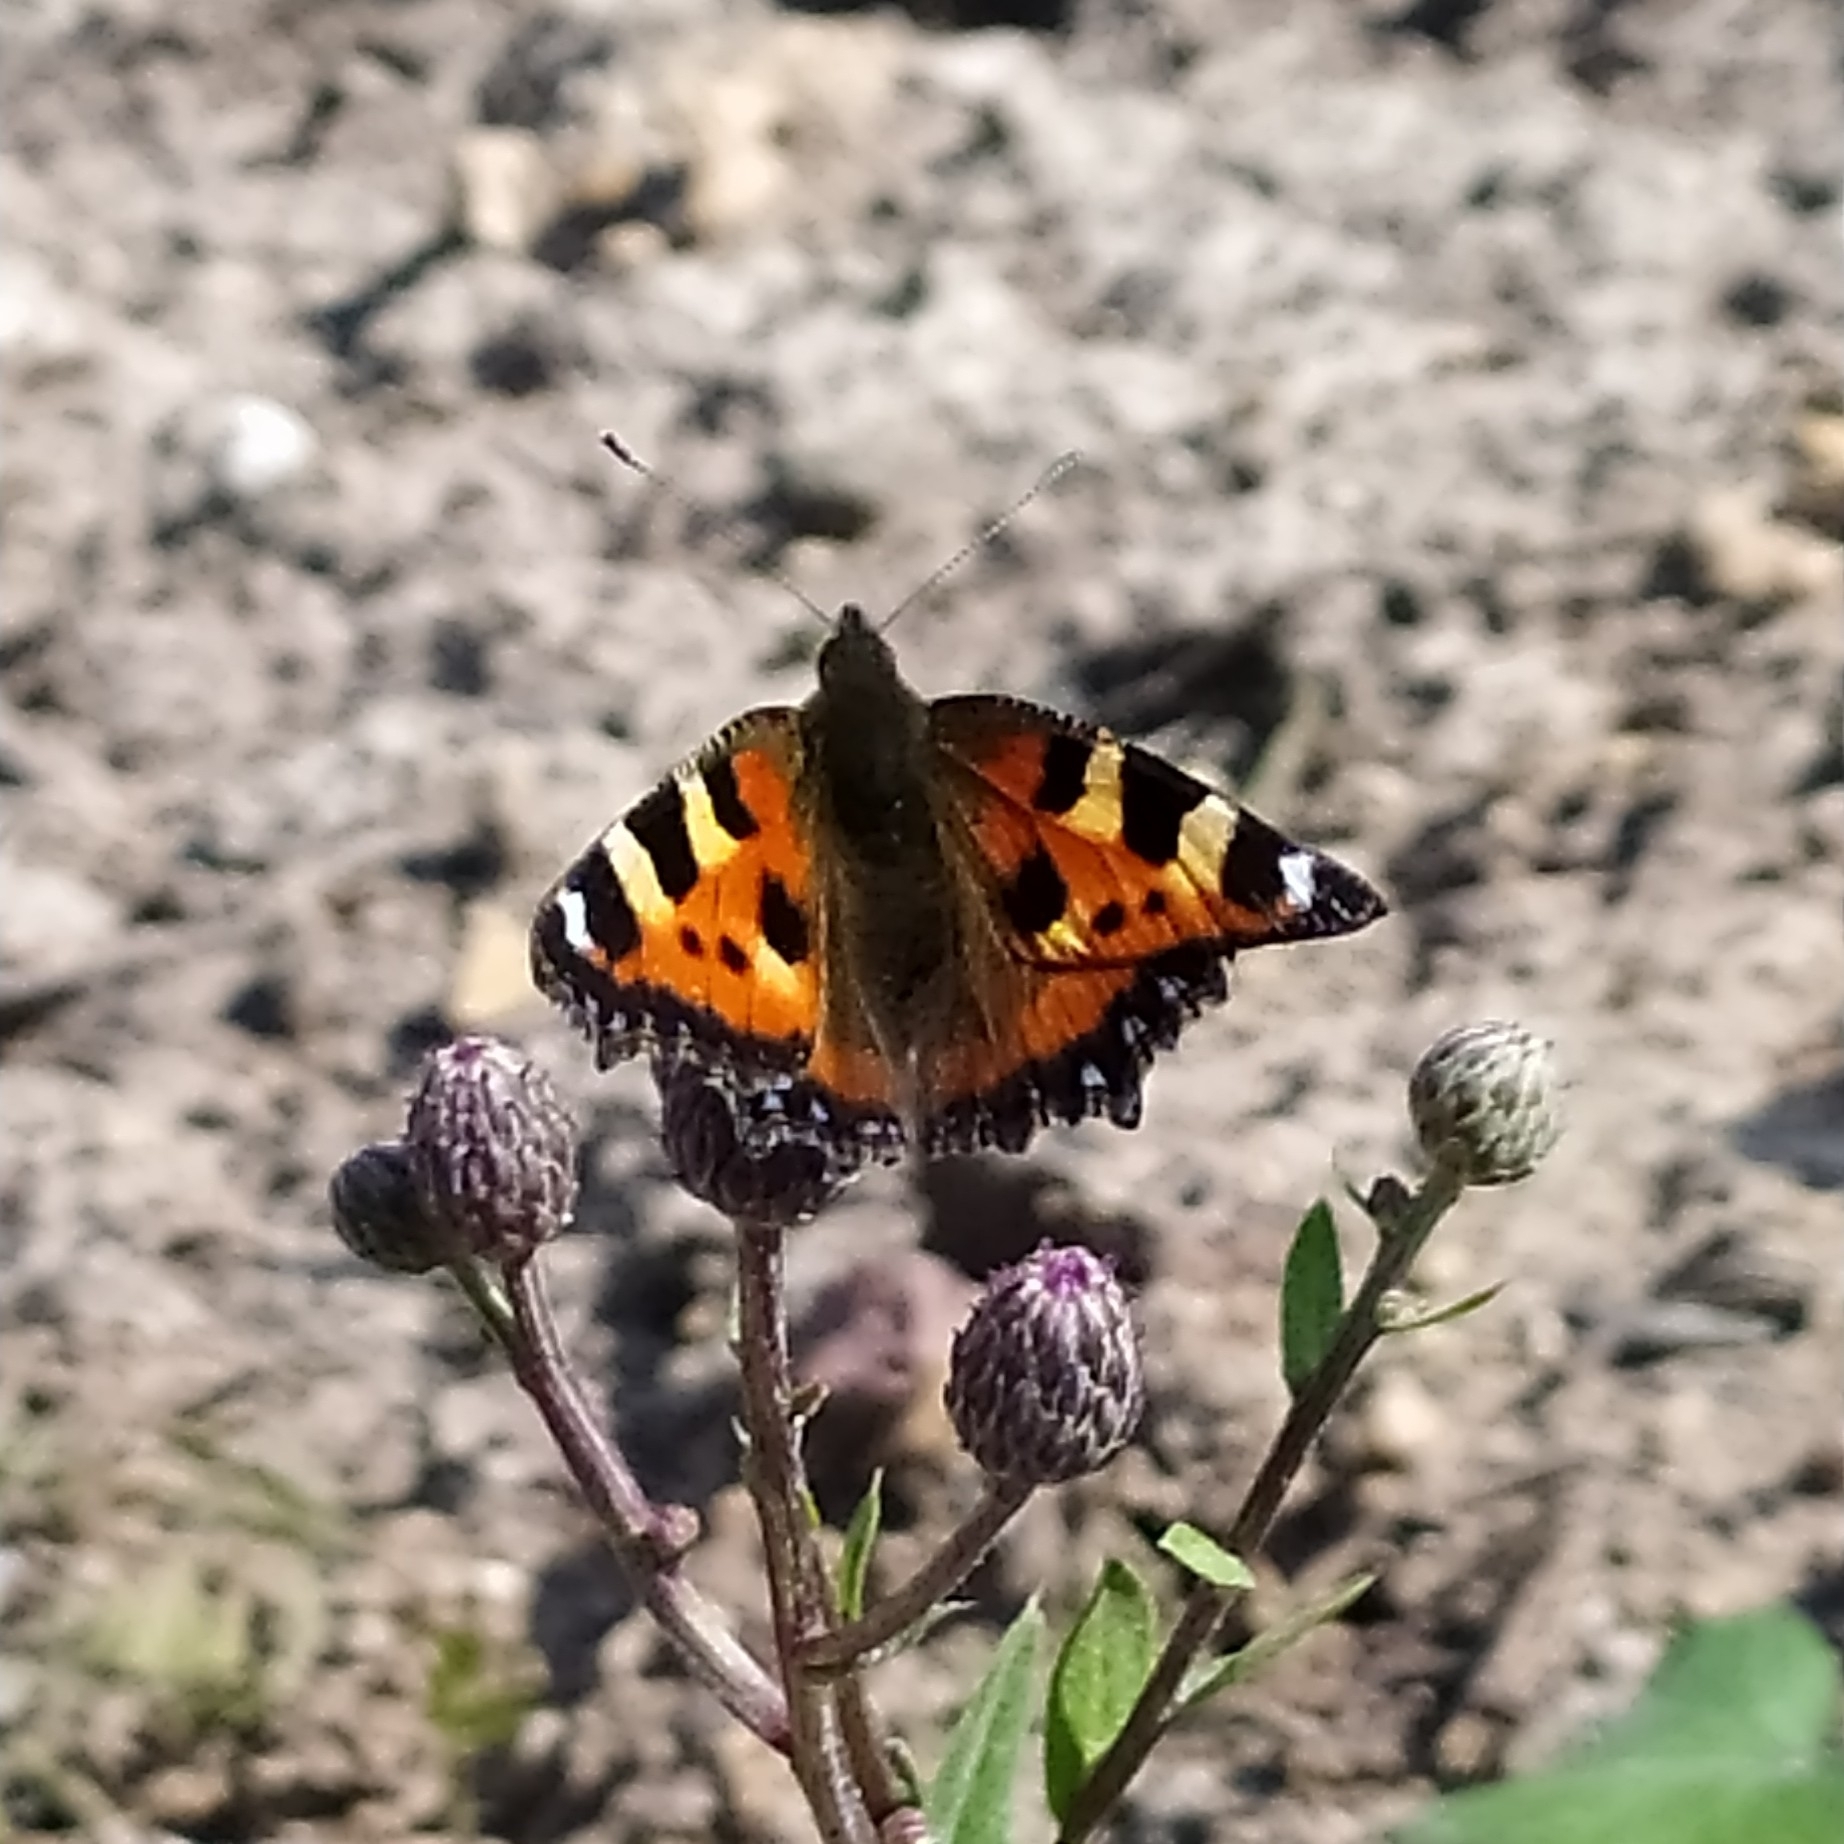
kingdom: Animalia
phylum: Arthropoda
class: Insecta
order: Lepidoptera
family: Nymphalidae
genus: Aglais
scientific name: Aglais urticae
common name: Small tortoiseshell
